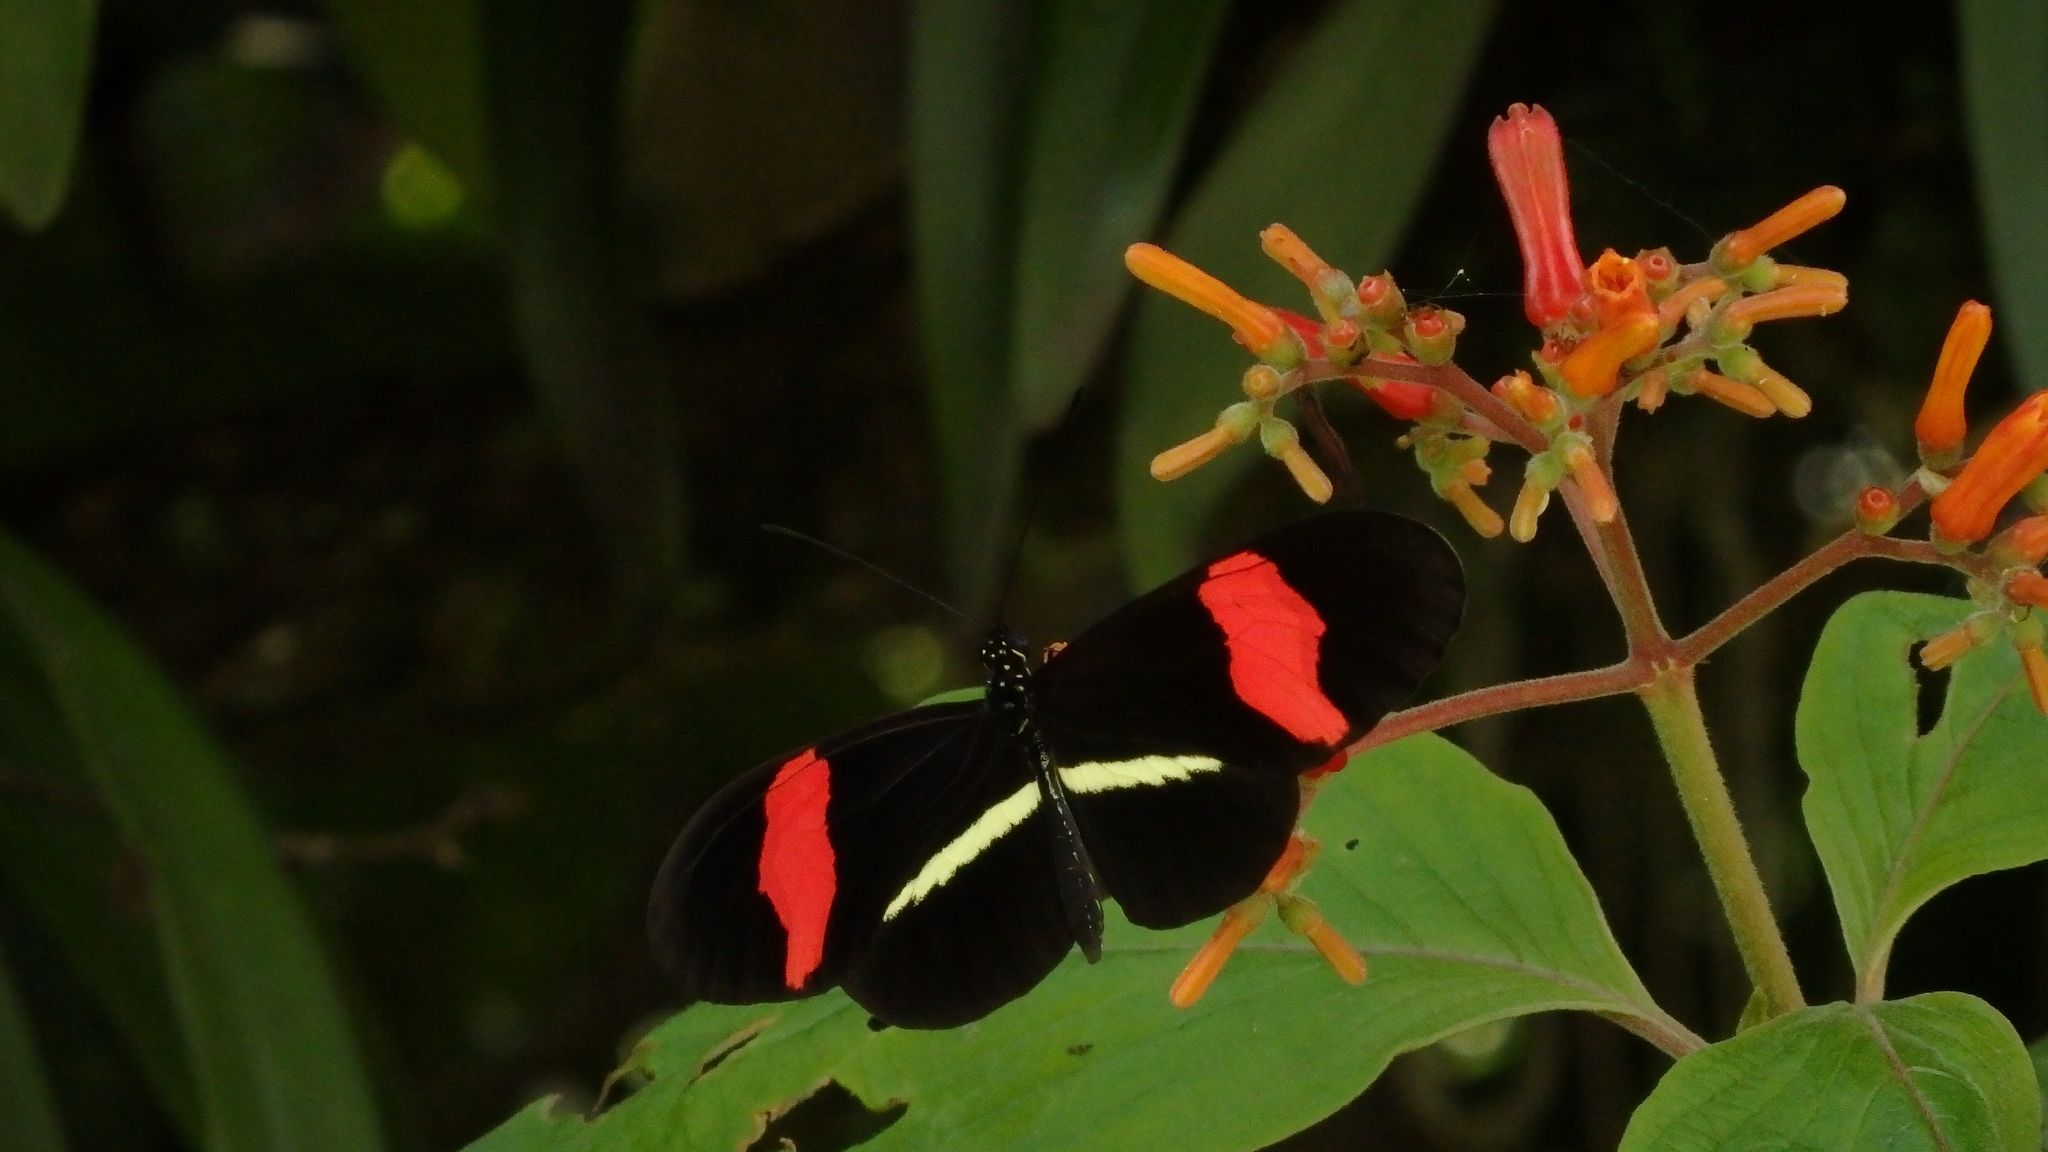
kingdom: Animalia
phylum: Arthropoda
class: Insecta
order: Lepidoptera
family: Nymphalidae
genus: Heliconius
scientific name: Heliconius erato
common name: Common patch longwing
